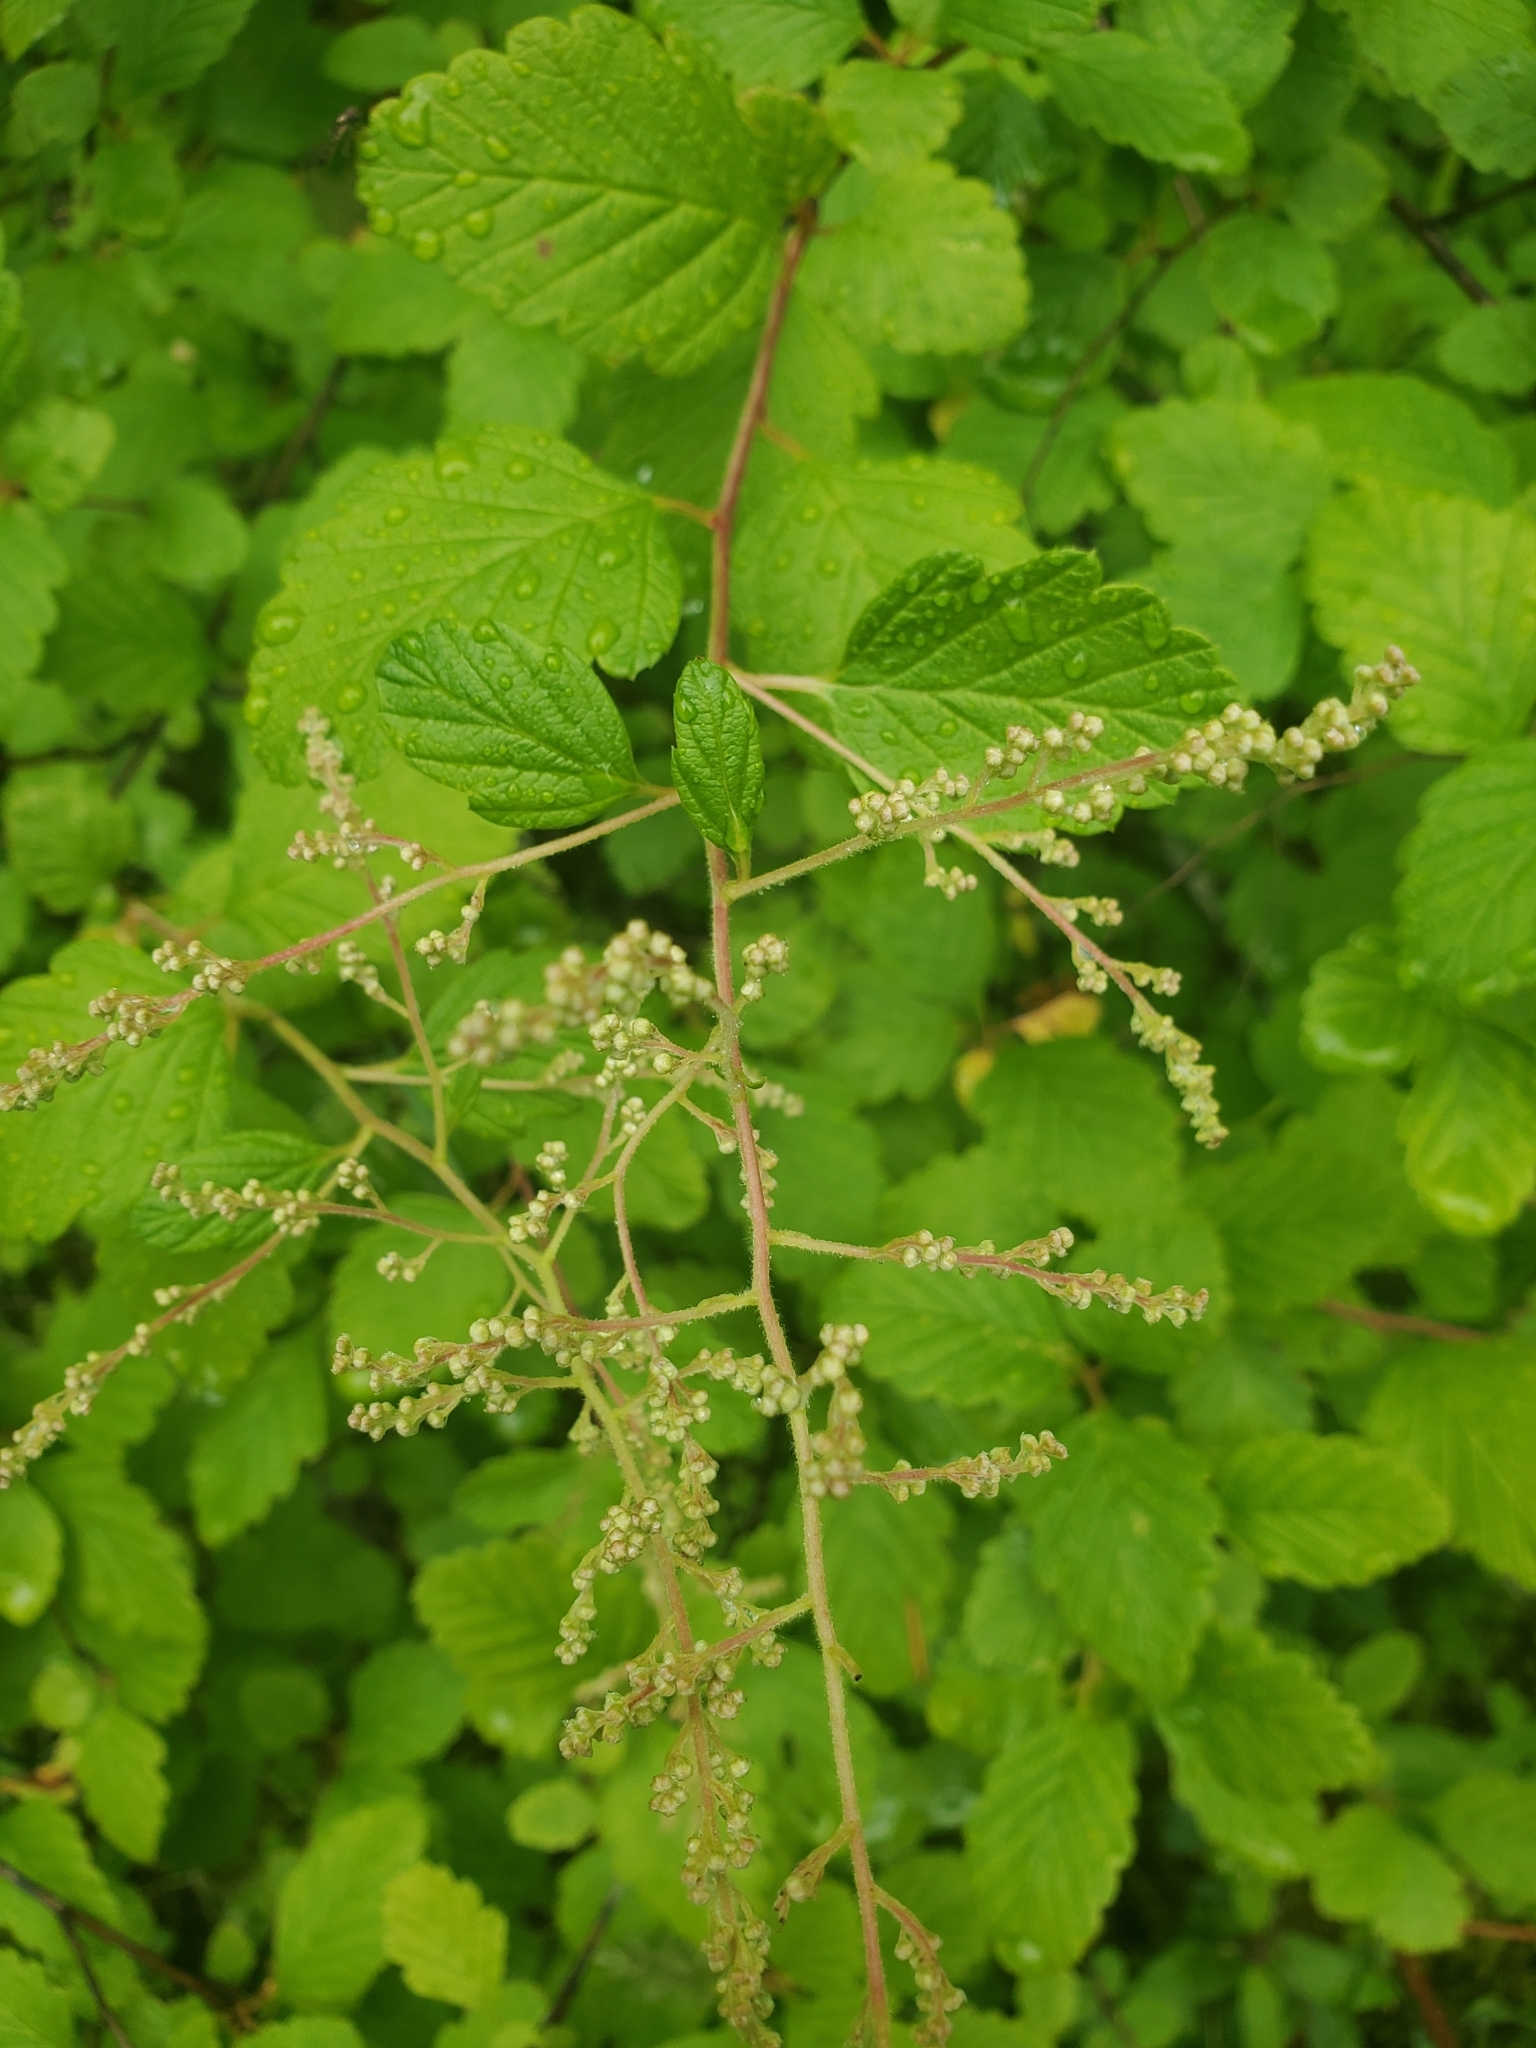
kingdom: Plantae
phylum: Tracheophyta
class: Magnoliopsida
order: Rosales
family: Rosaceae
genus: Holodiscus
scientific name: Holodiscus discolor
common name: Oceanspray
